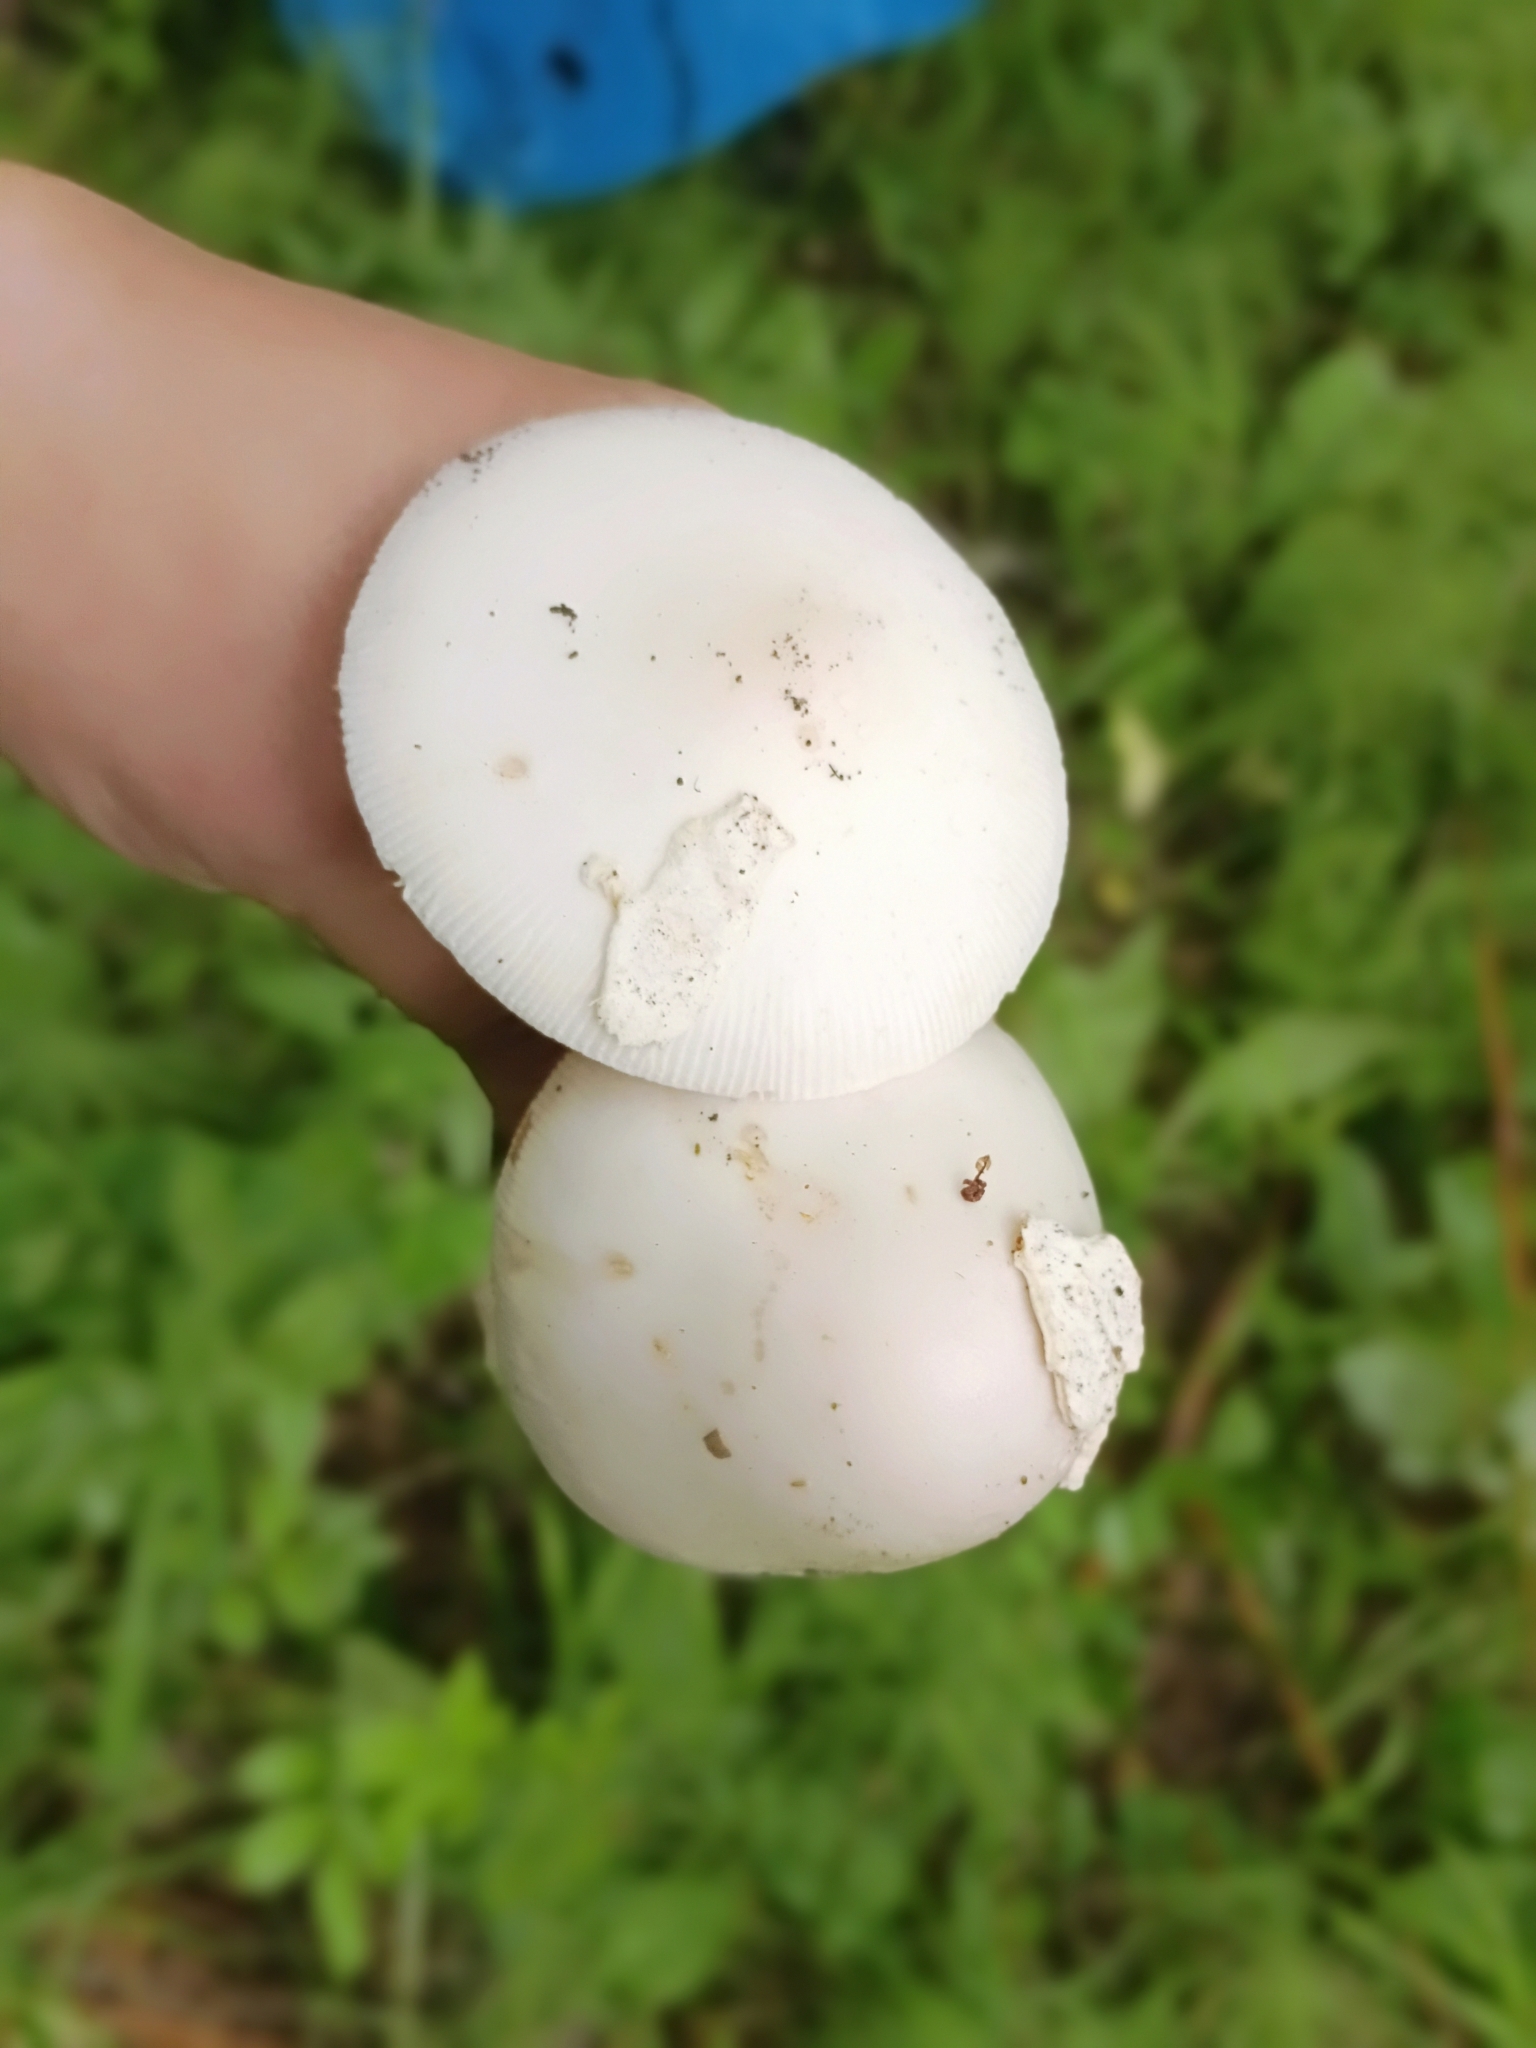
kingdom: Fungi
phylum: Basidiomycota
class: Agaricomycetes
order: Agaricales
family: Amanitaceae
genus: Amanita
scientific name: Amanita vaginata
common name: Grisette
